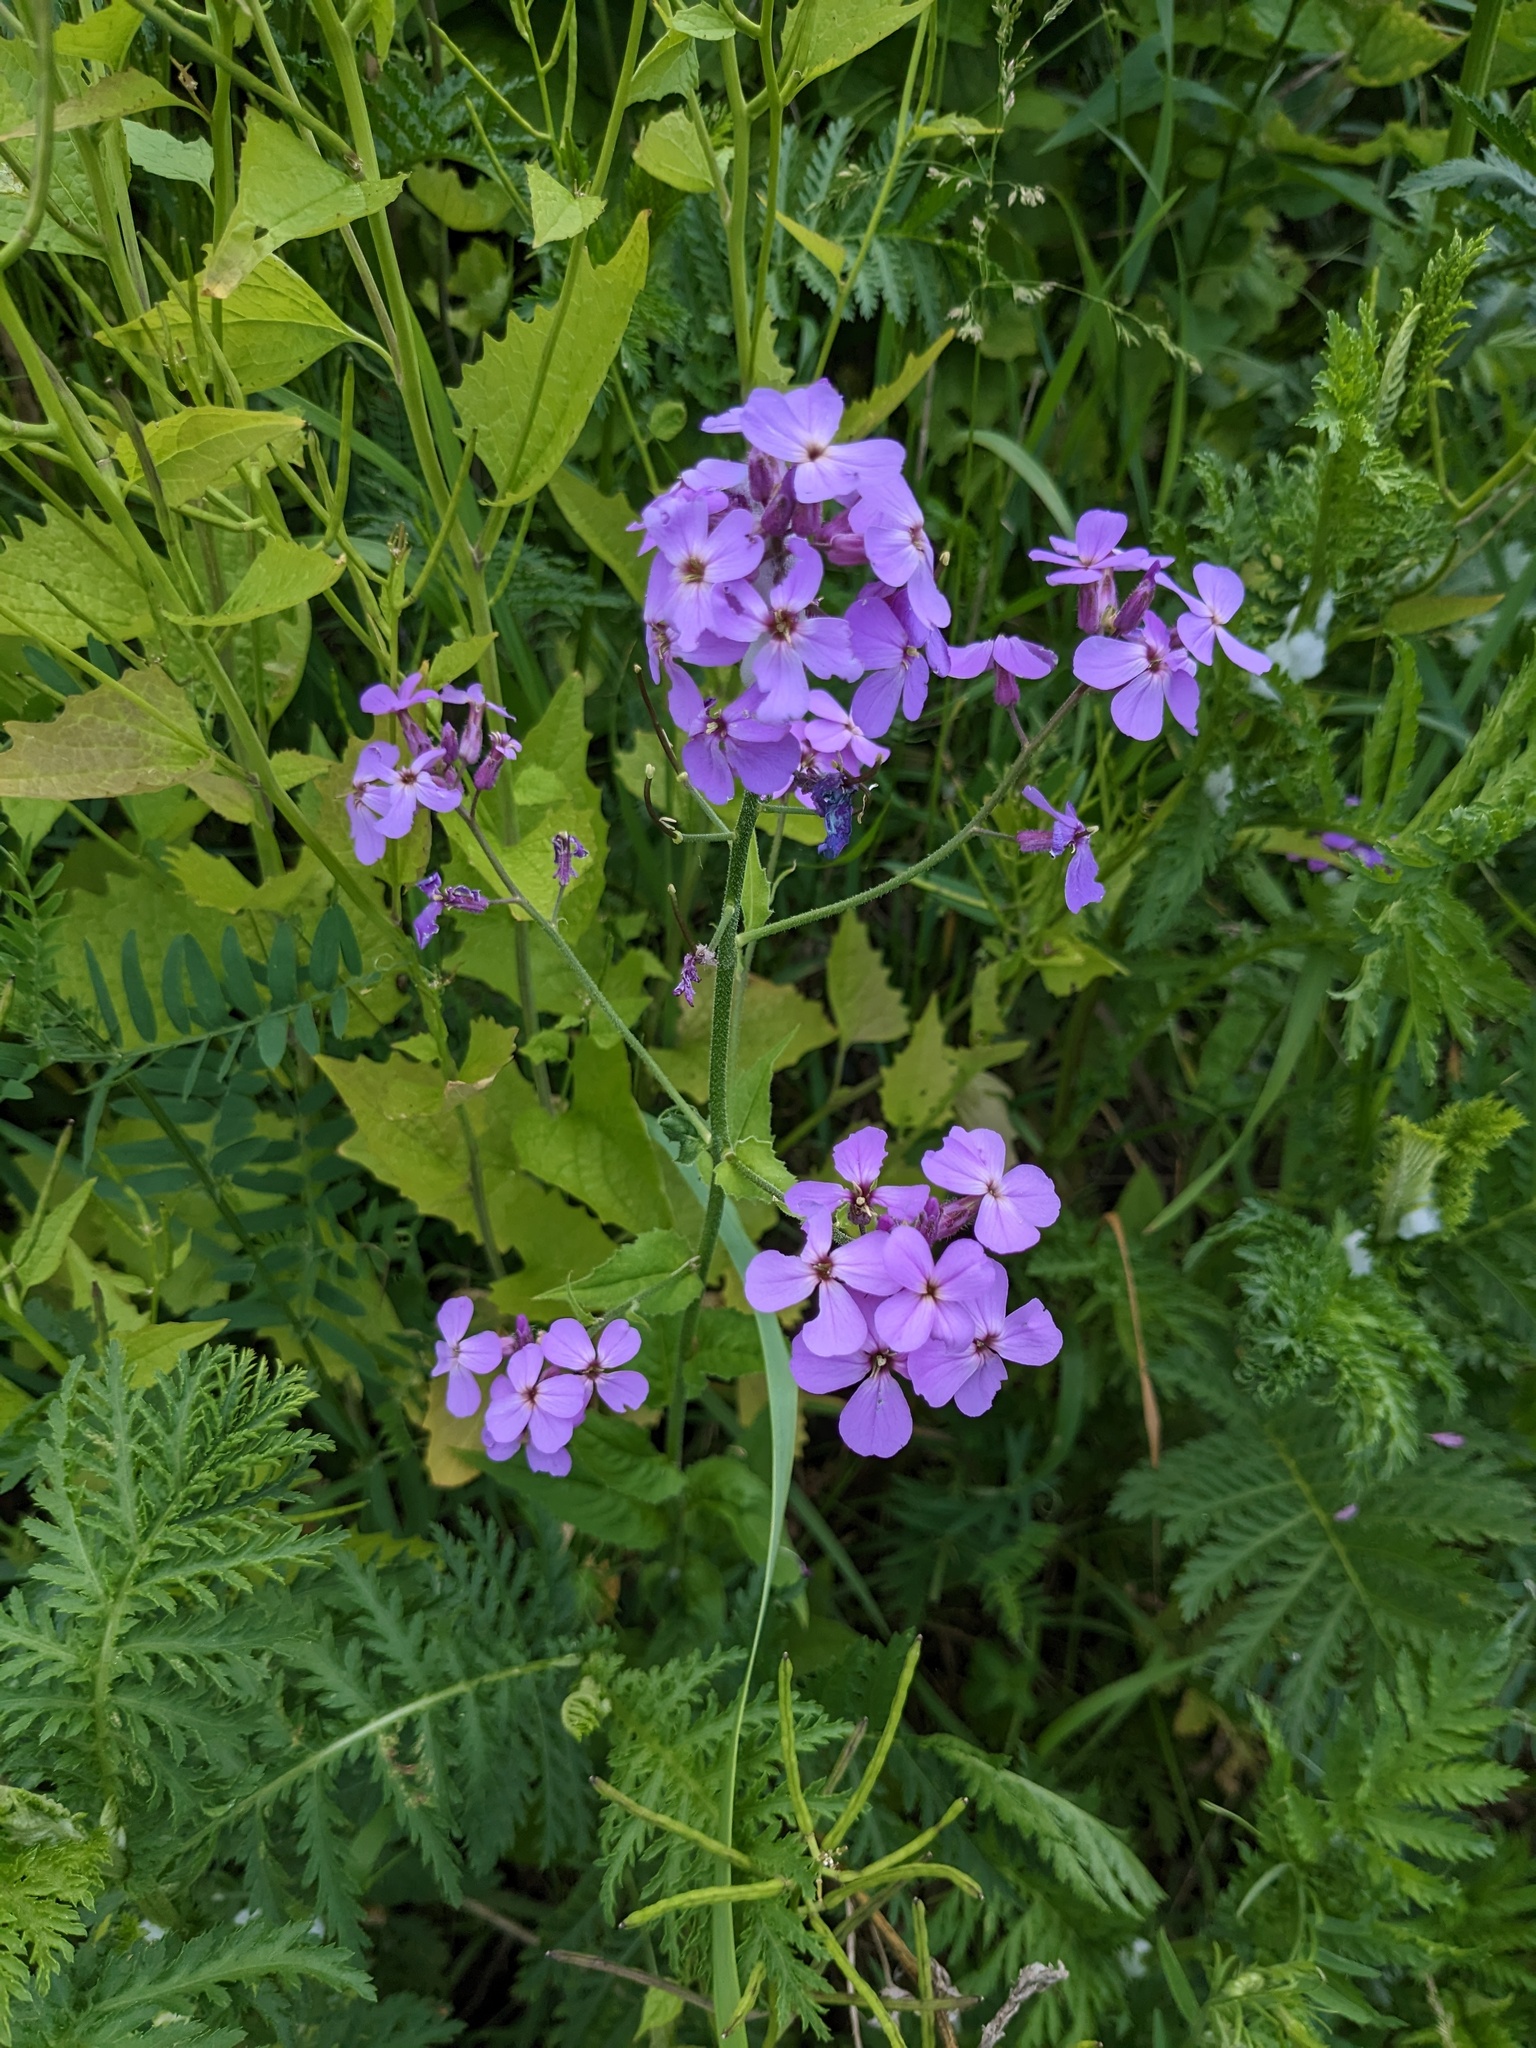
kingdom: Plantae
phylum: Tracheophyta
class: Magnoliopsida
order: Brassicales
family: Brassicaceae
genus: Hesperis
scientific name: Hesperis matronalis
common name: Dame's-violet
